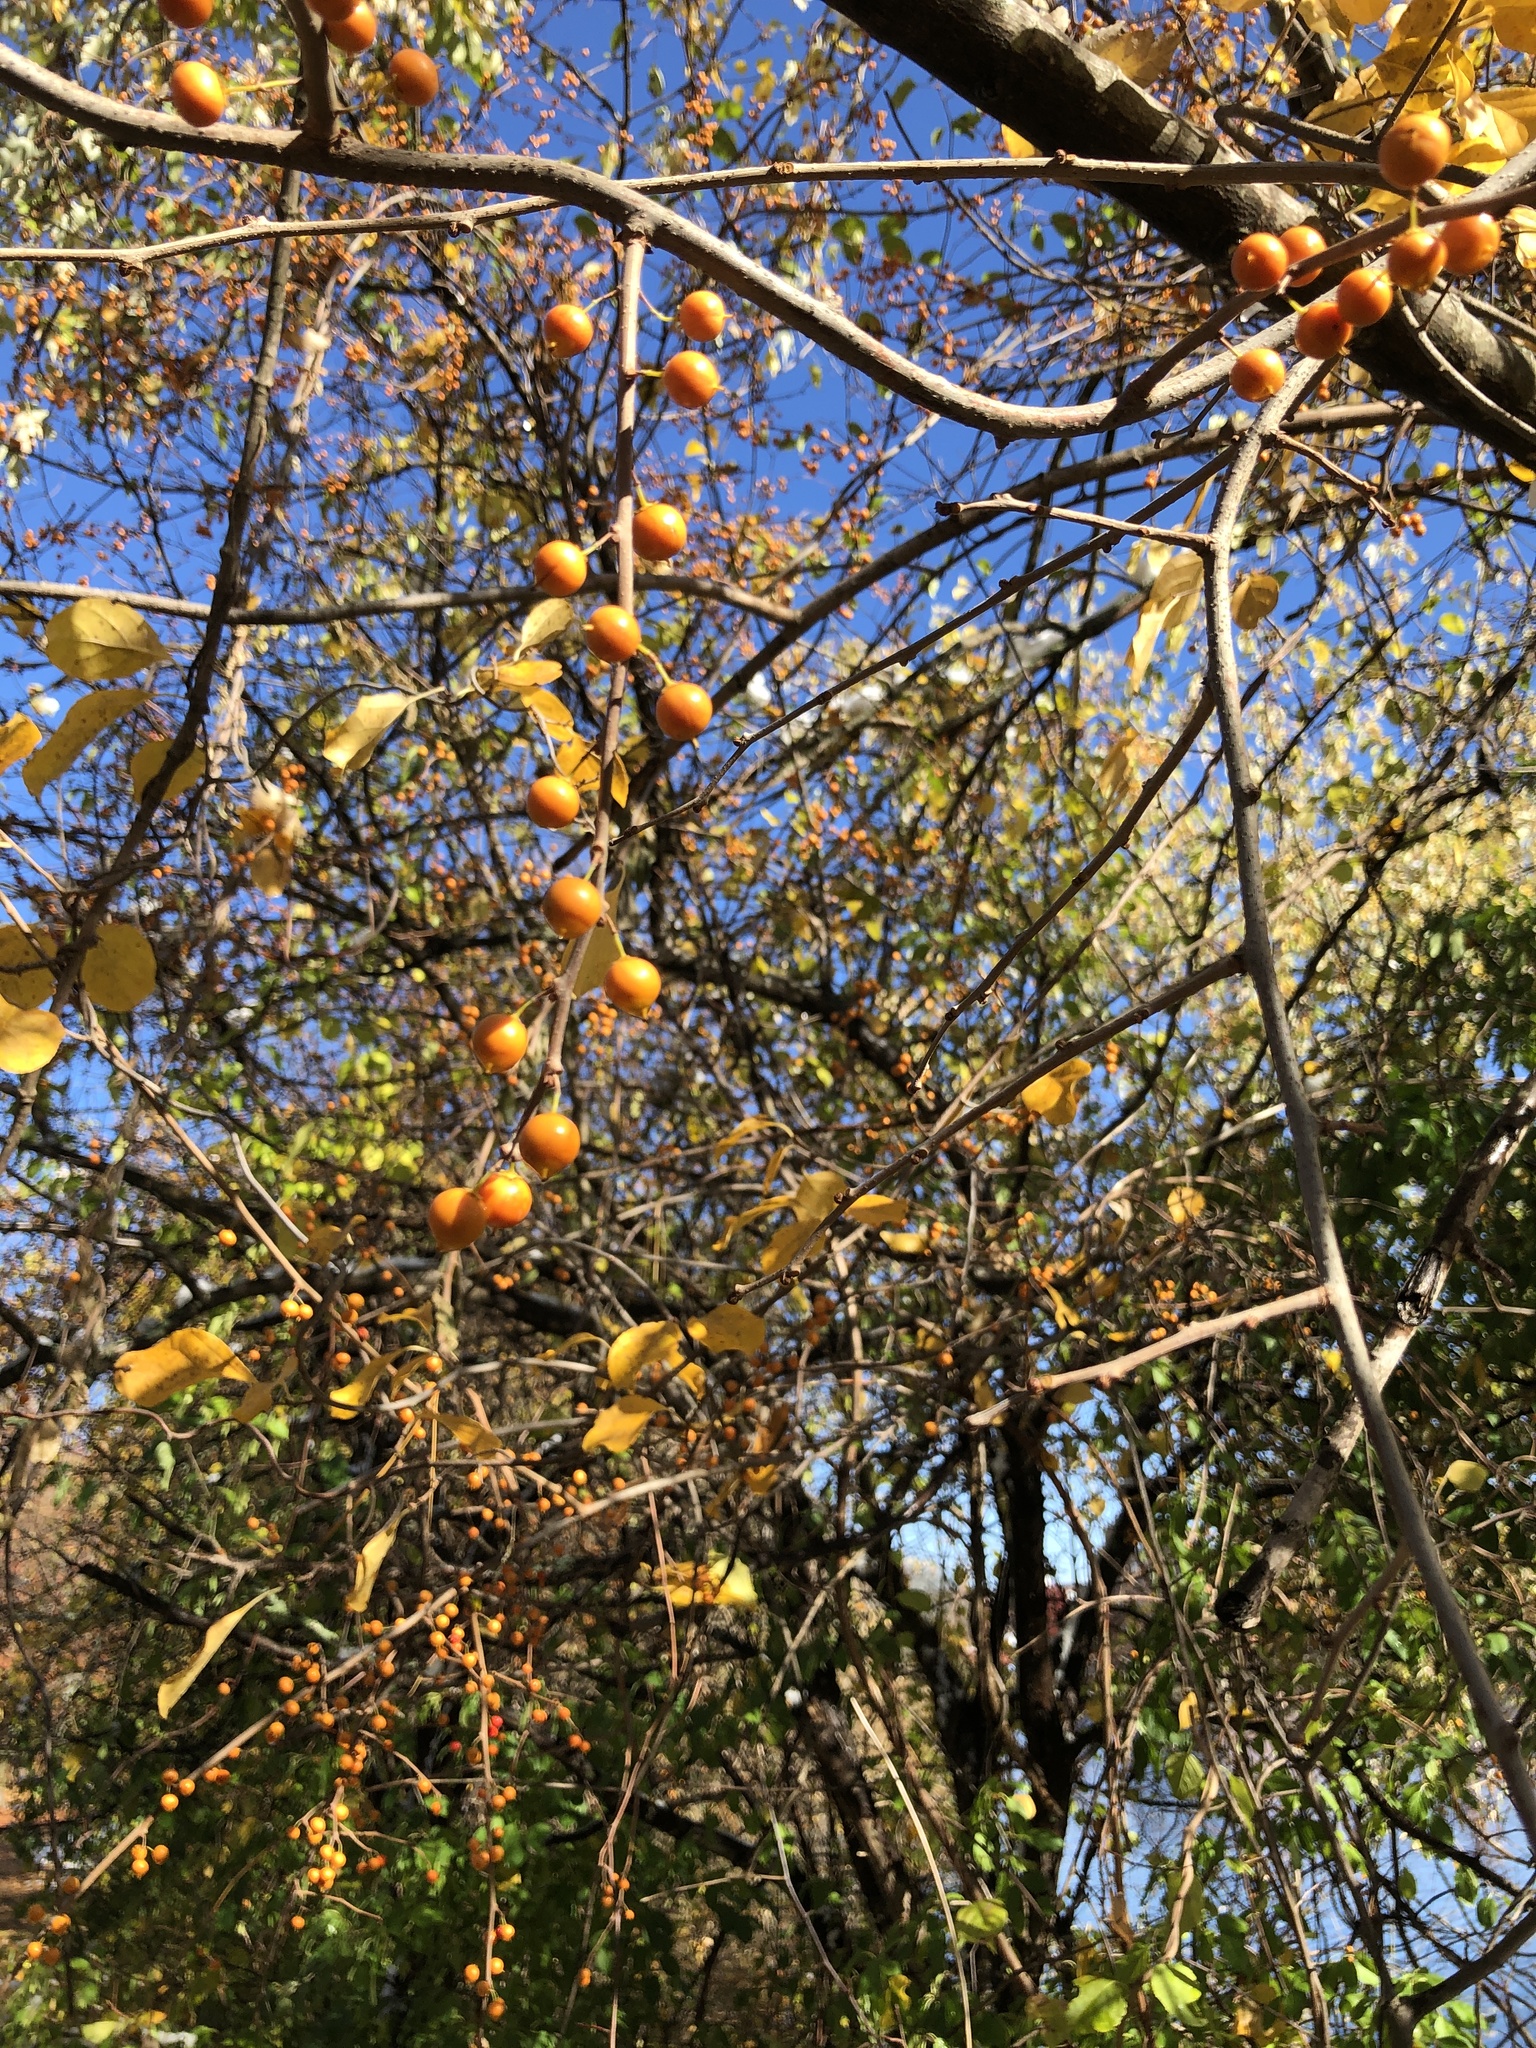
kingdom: Plantae
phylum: Tracheophyta
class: Magnoliopsida
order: Celastrales
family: Celastraceae
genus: Celastrus
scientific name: Celastrus orbiculatus
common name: Oriental bittersweet
